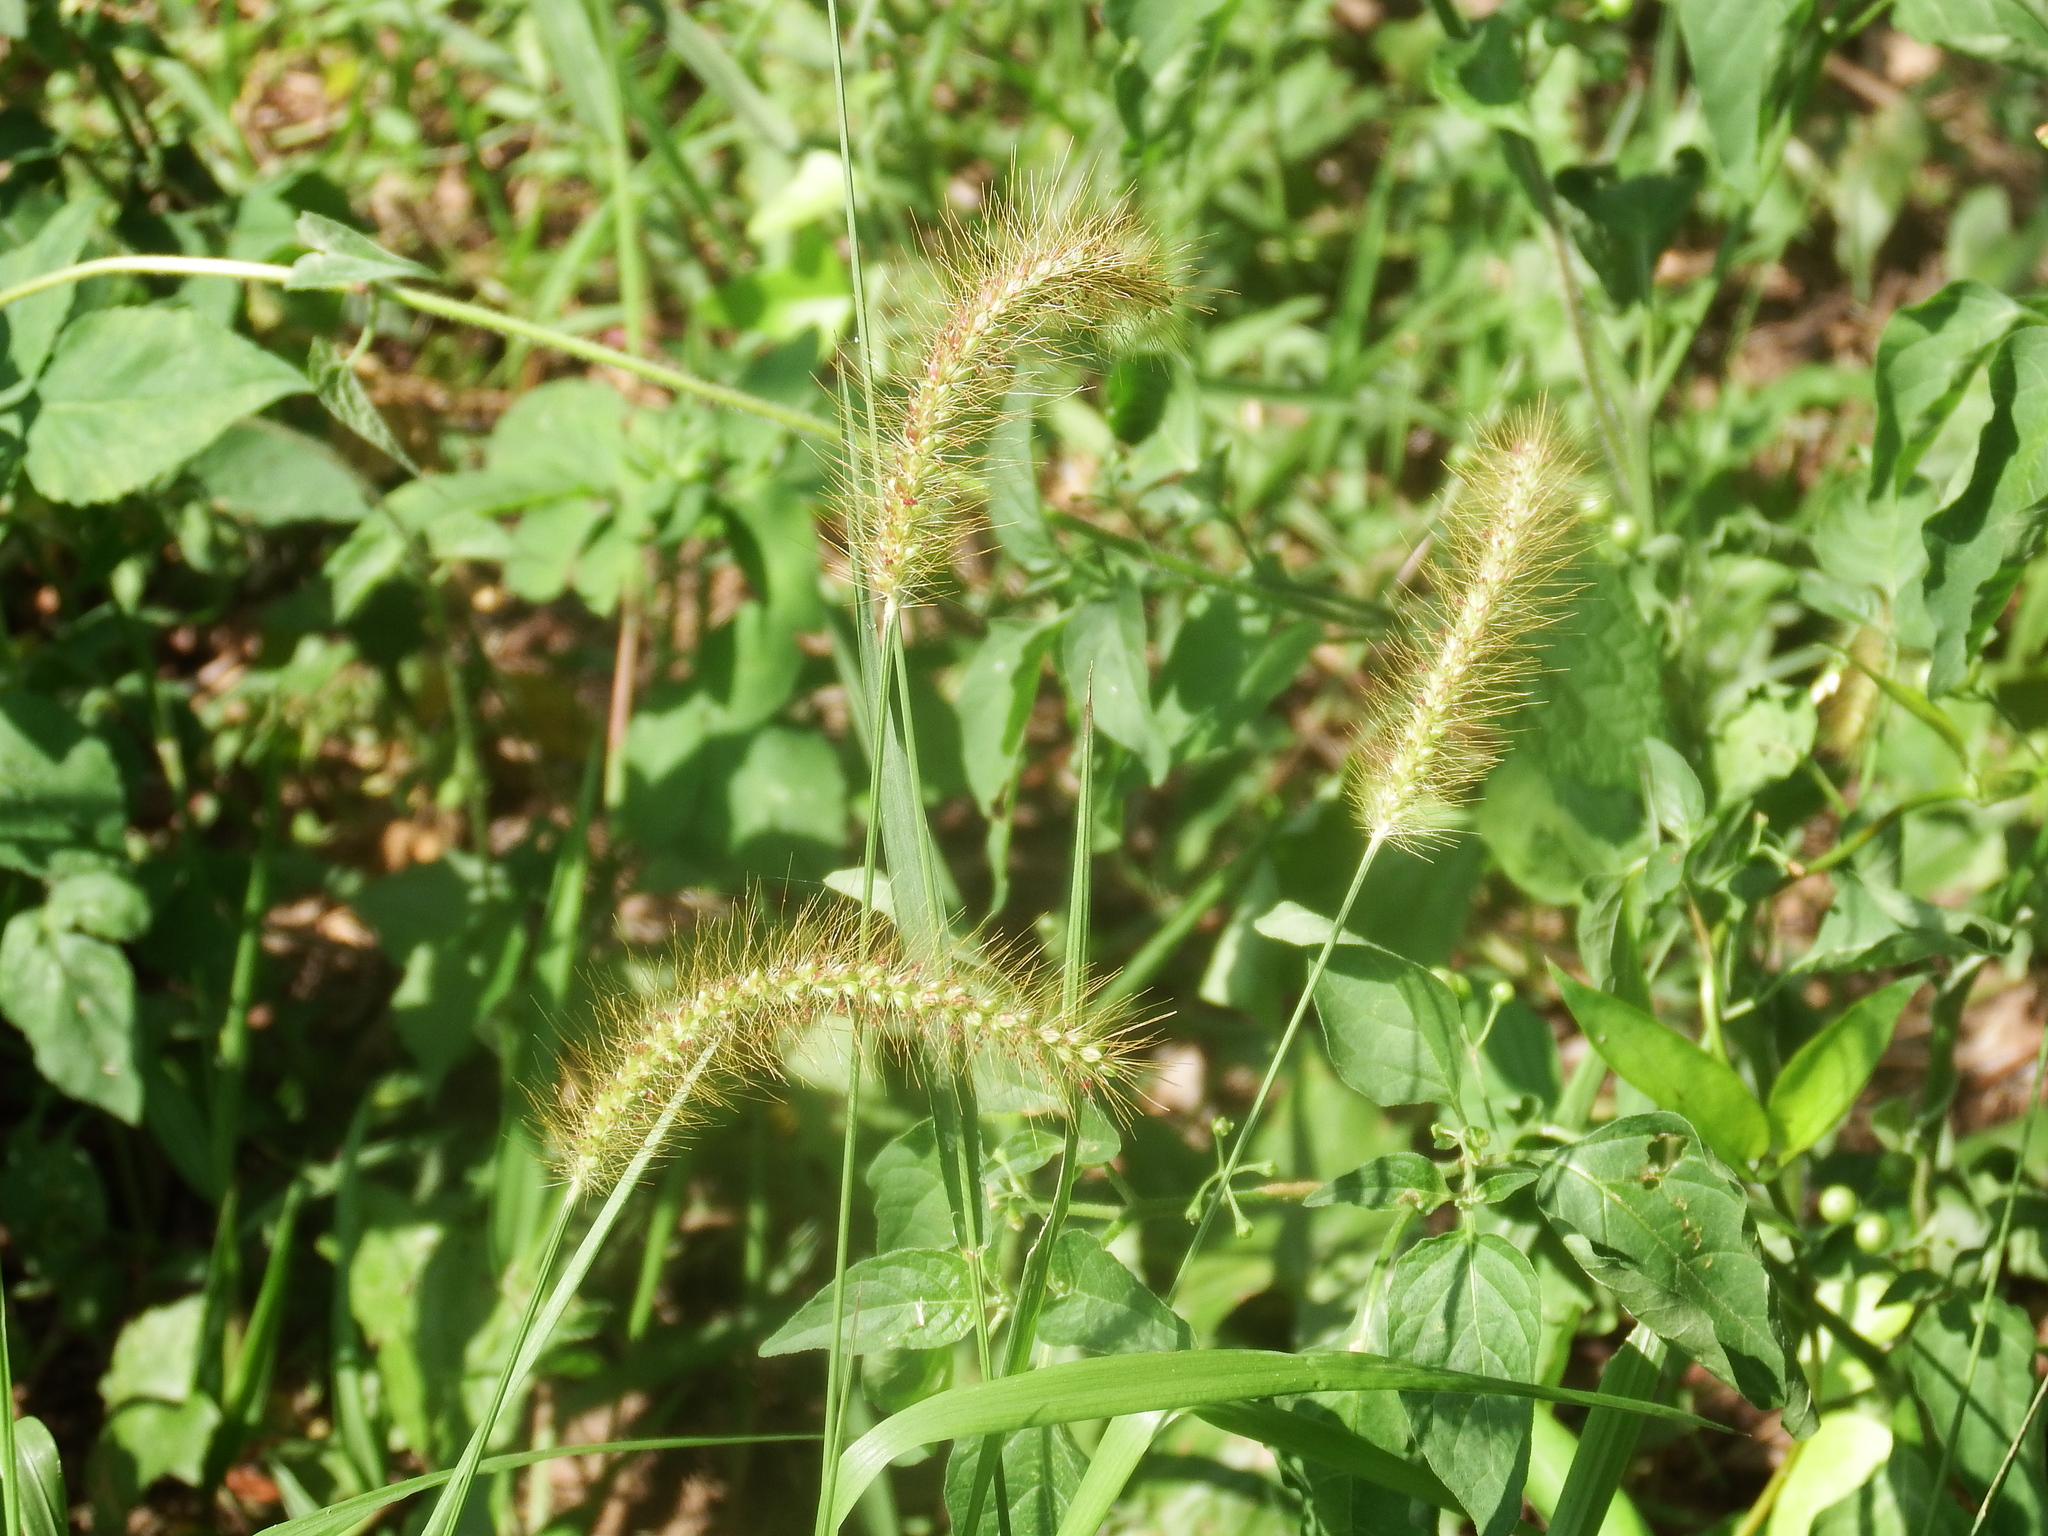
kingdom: Plantae
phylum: Tracheophyta
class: Liliopsida
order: Poales
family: Poaceae
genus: Setaria
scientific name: Setaria parviflora
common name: Knotroot bristle-grass
